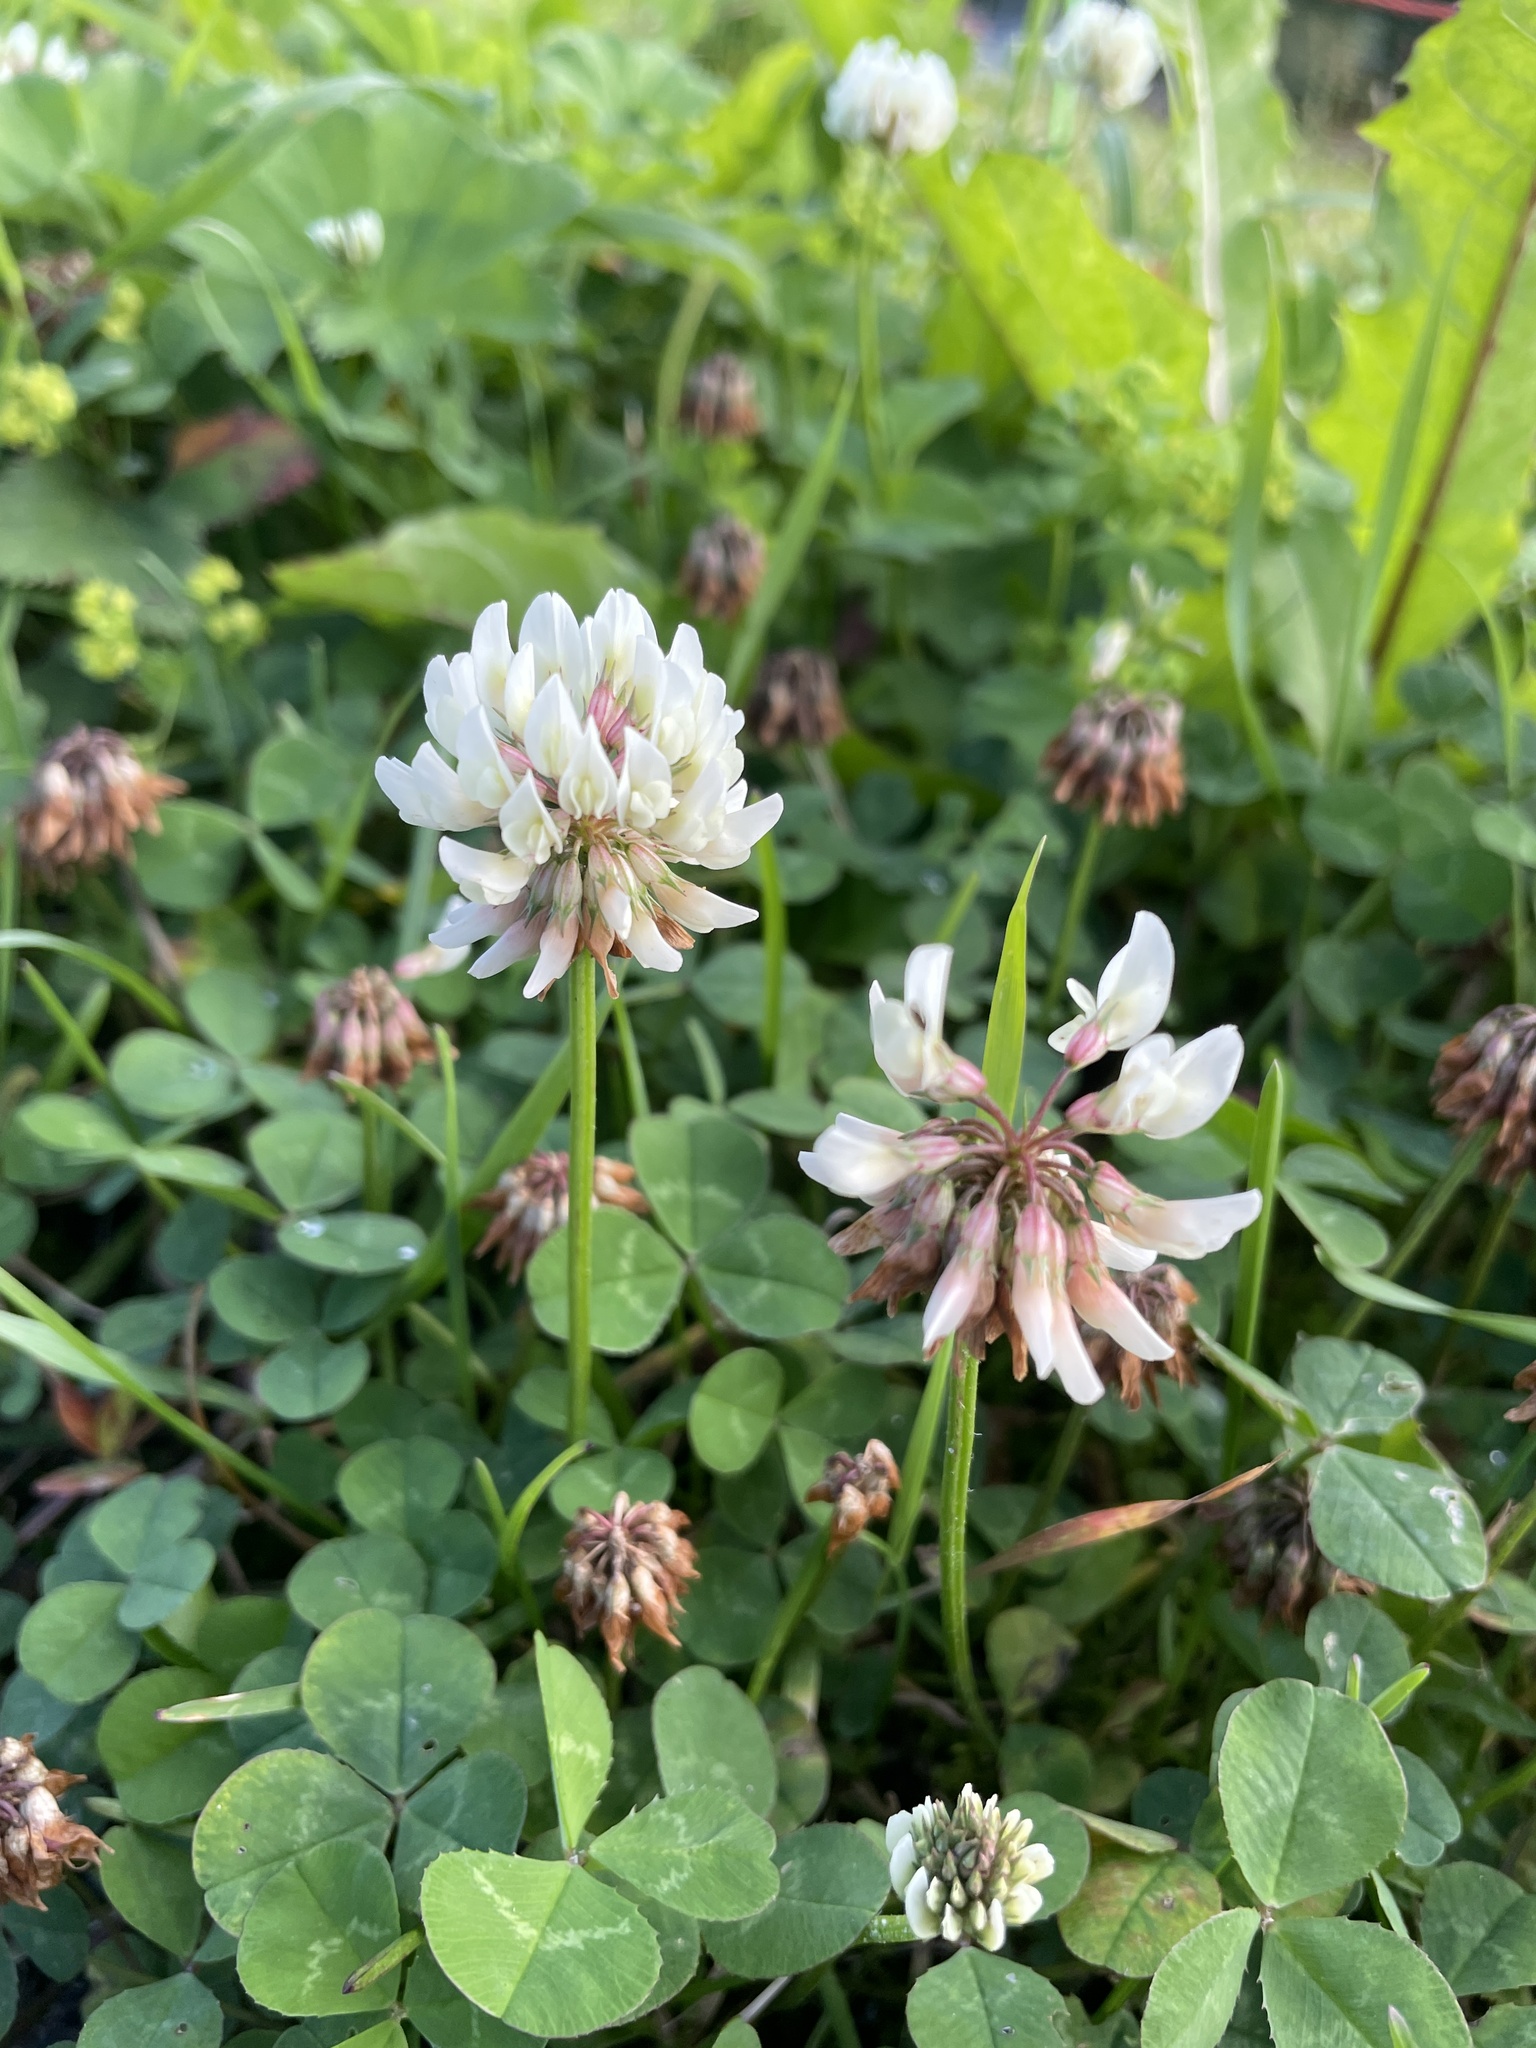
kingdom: Plantae
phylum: Tracheophyta
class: Magnoliopsida
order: Fabales
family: Fabaceae
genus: Trifolium
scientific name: Trifolium repens
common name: White clover
